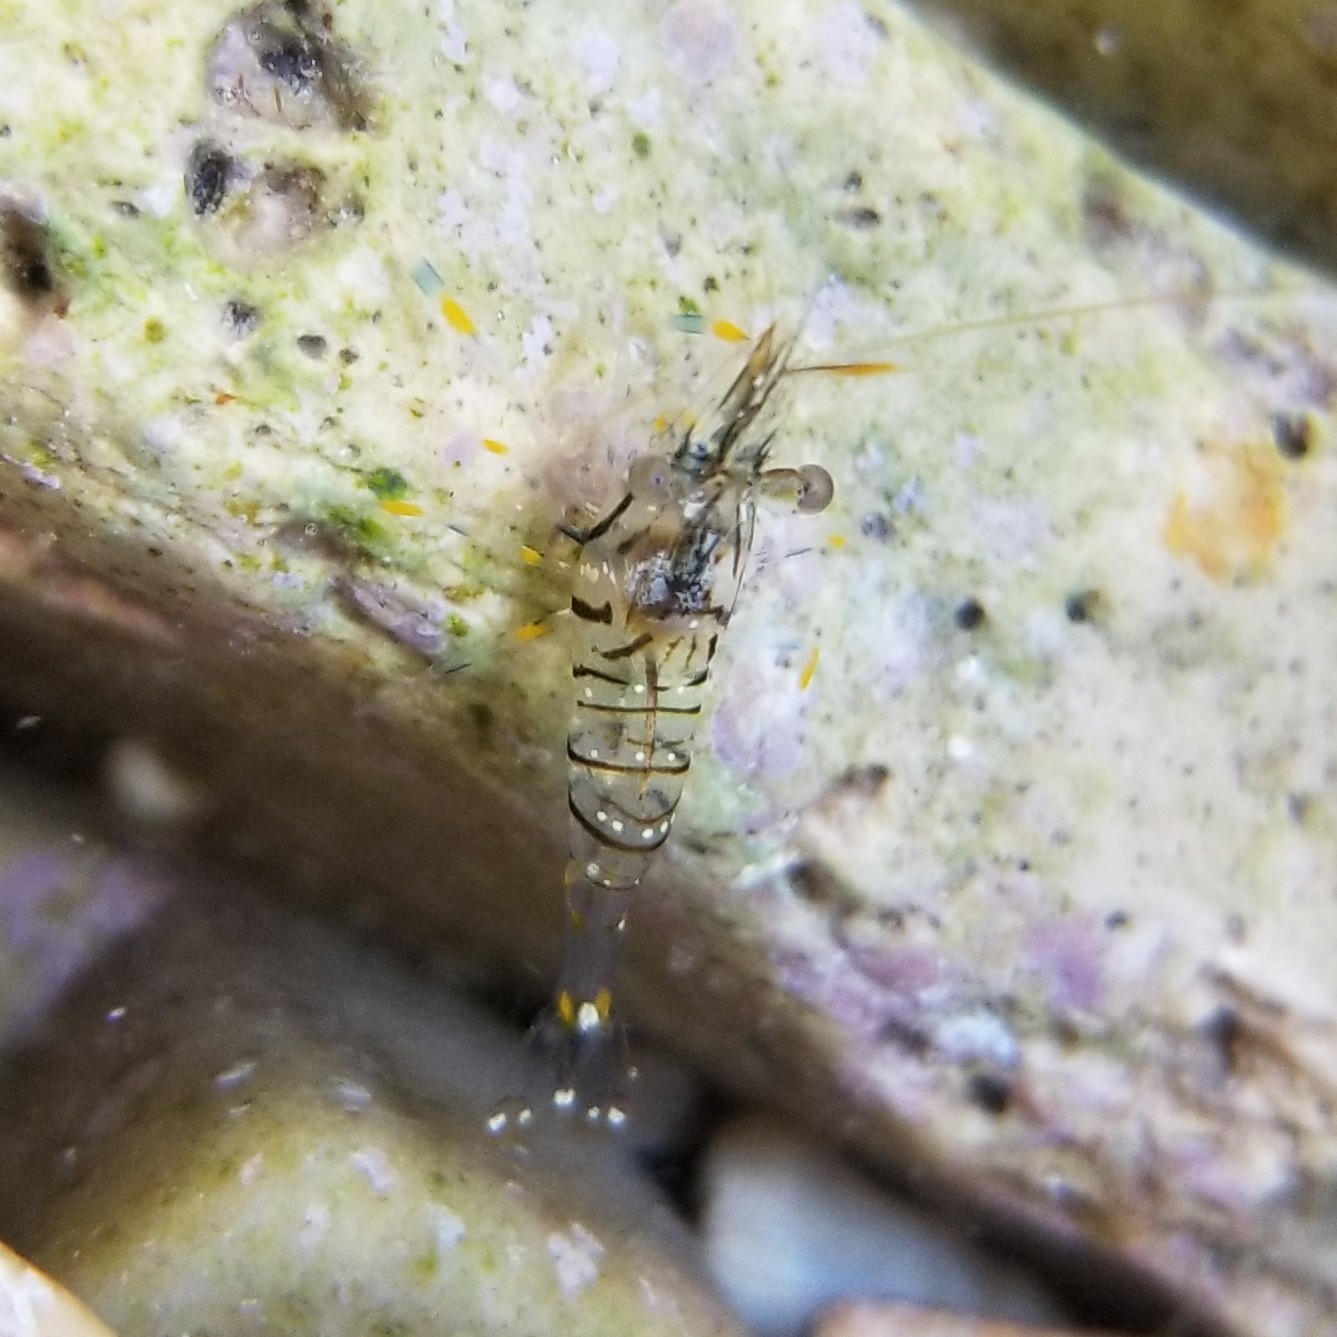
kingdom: Animalia
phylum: Arthropoda
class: Malacostraca
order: Decapoda
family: Palaemonidae
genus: Palaemon
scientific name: Palaemon elegans
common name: Grass prawm
